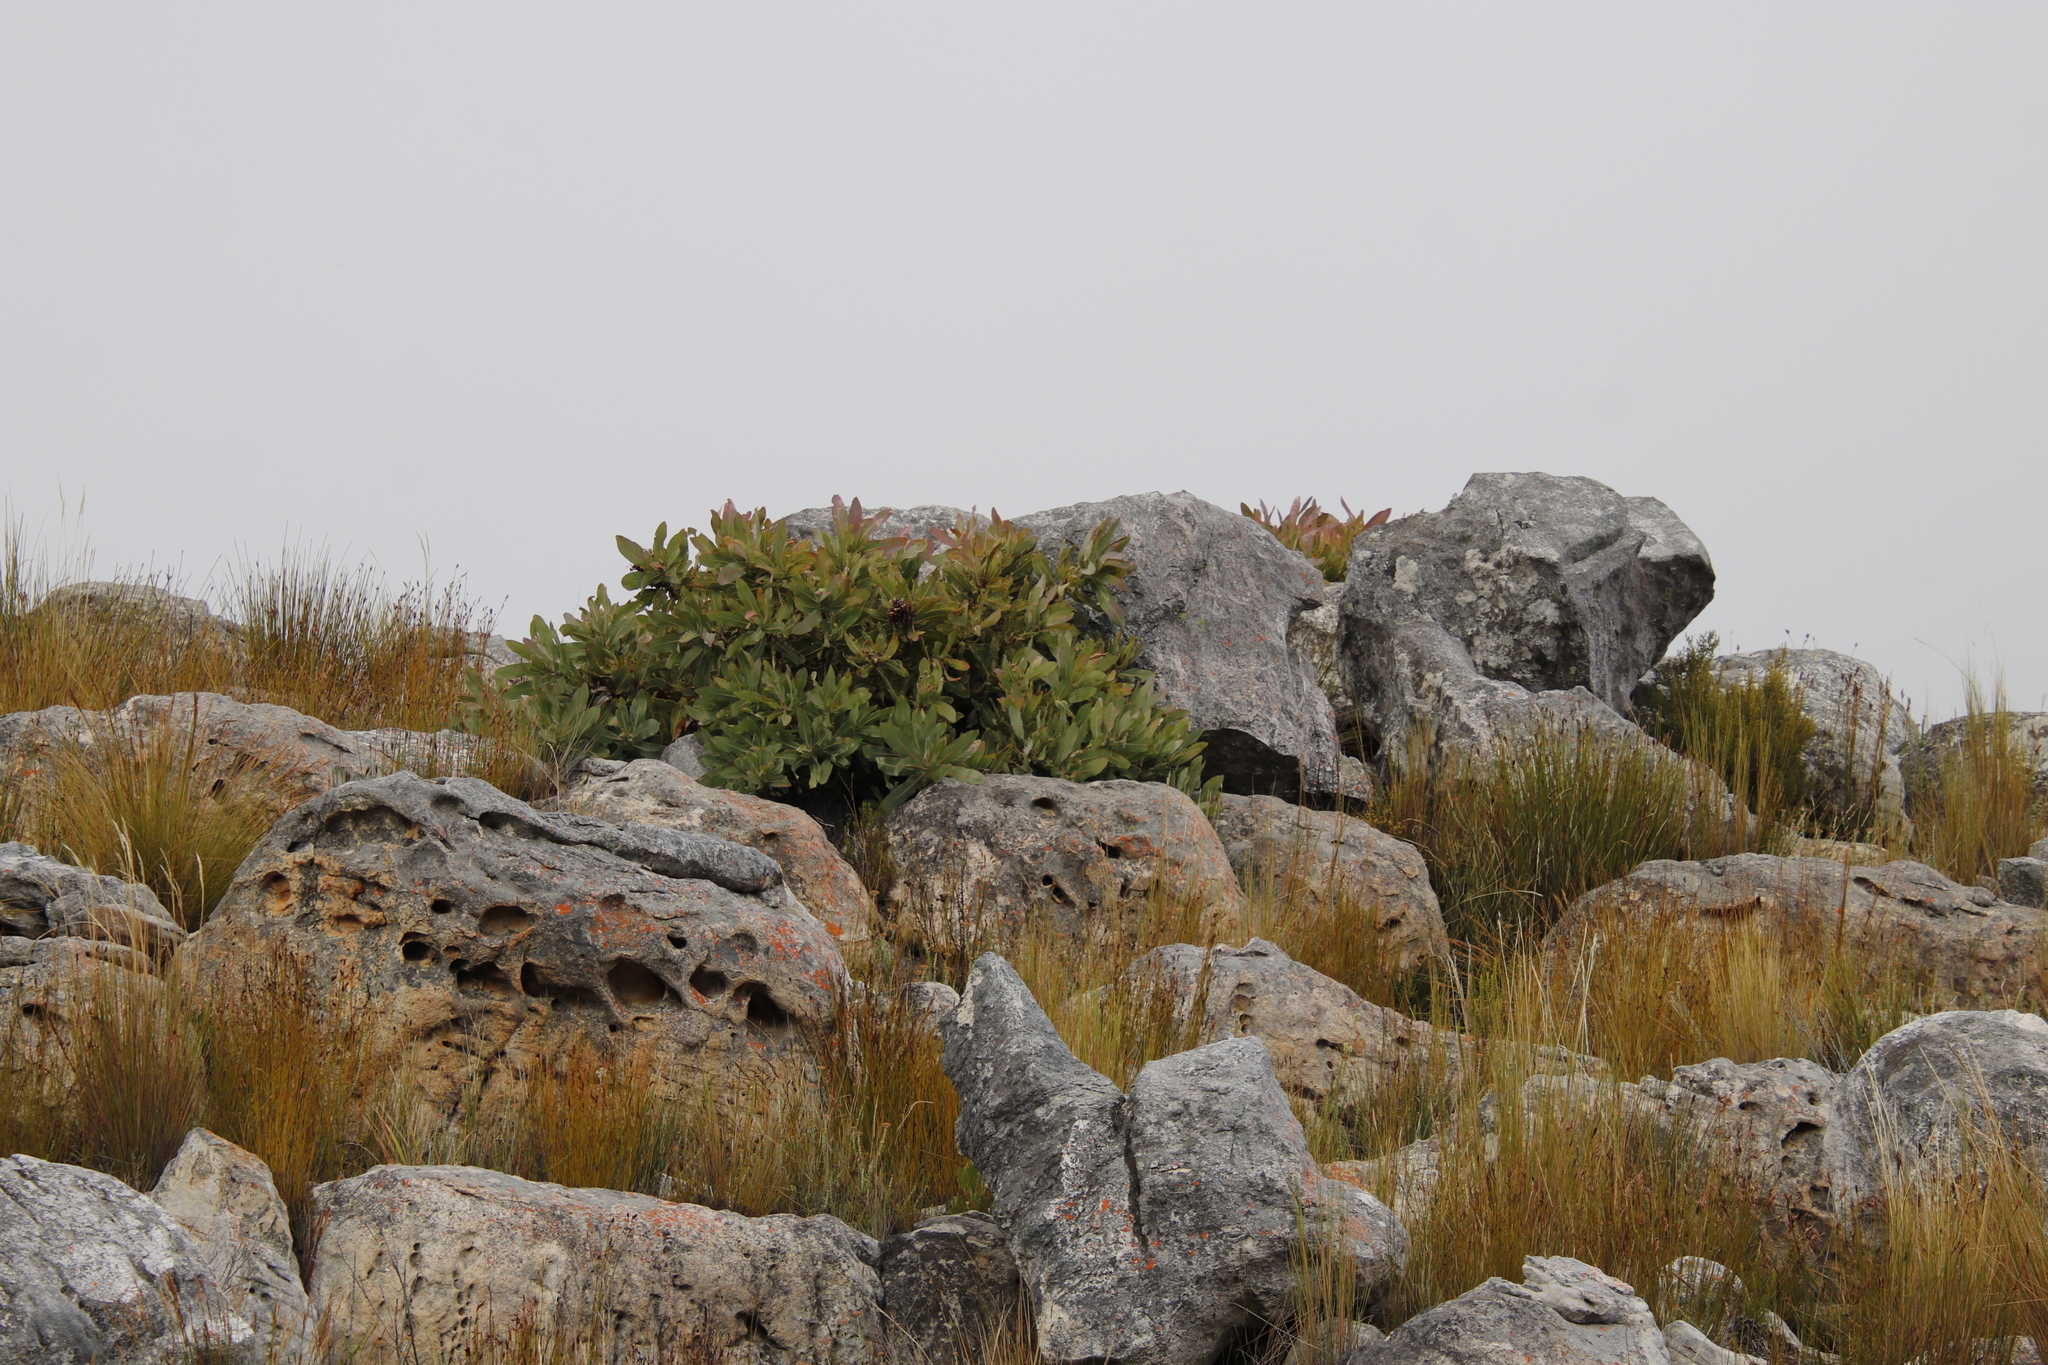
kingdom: Plantae
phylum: Tracheophyta
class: Magnoliopsida
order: Proteales
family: Proteaceae
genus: Protea
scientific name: Protea magnifica
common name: Bearded sugarbush
